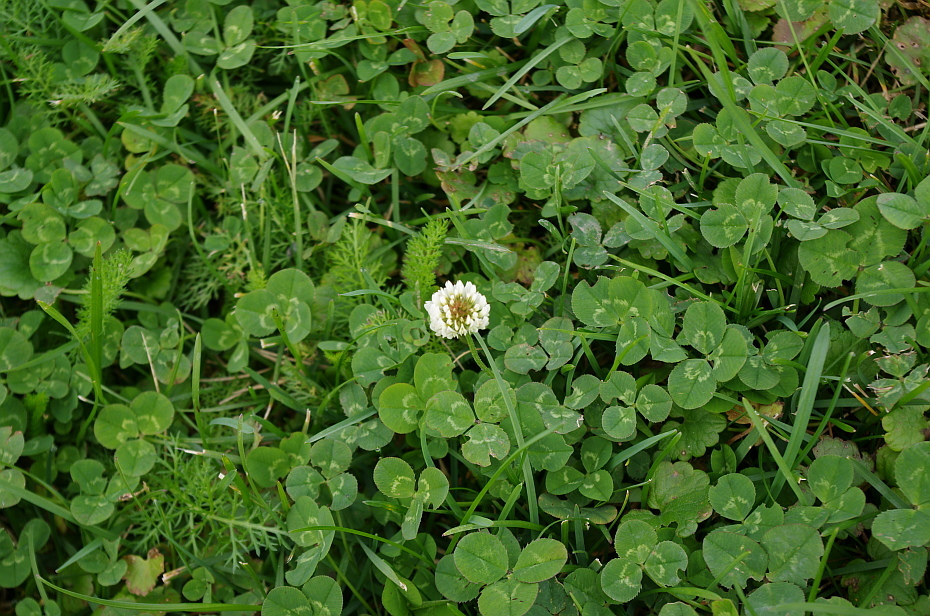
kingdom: Plantae
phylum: Tracheophyta
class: Magnoliopsida
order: Fabales
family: Fabaceae
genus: Trifolium
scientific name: Trifolium repens
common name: White clover
